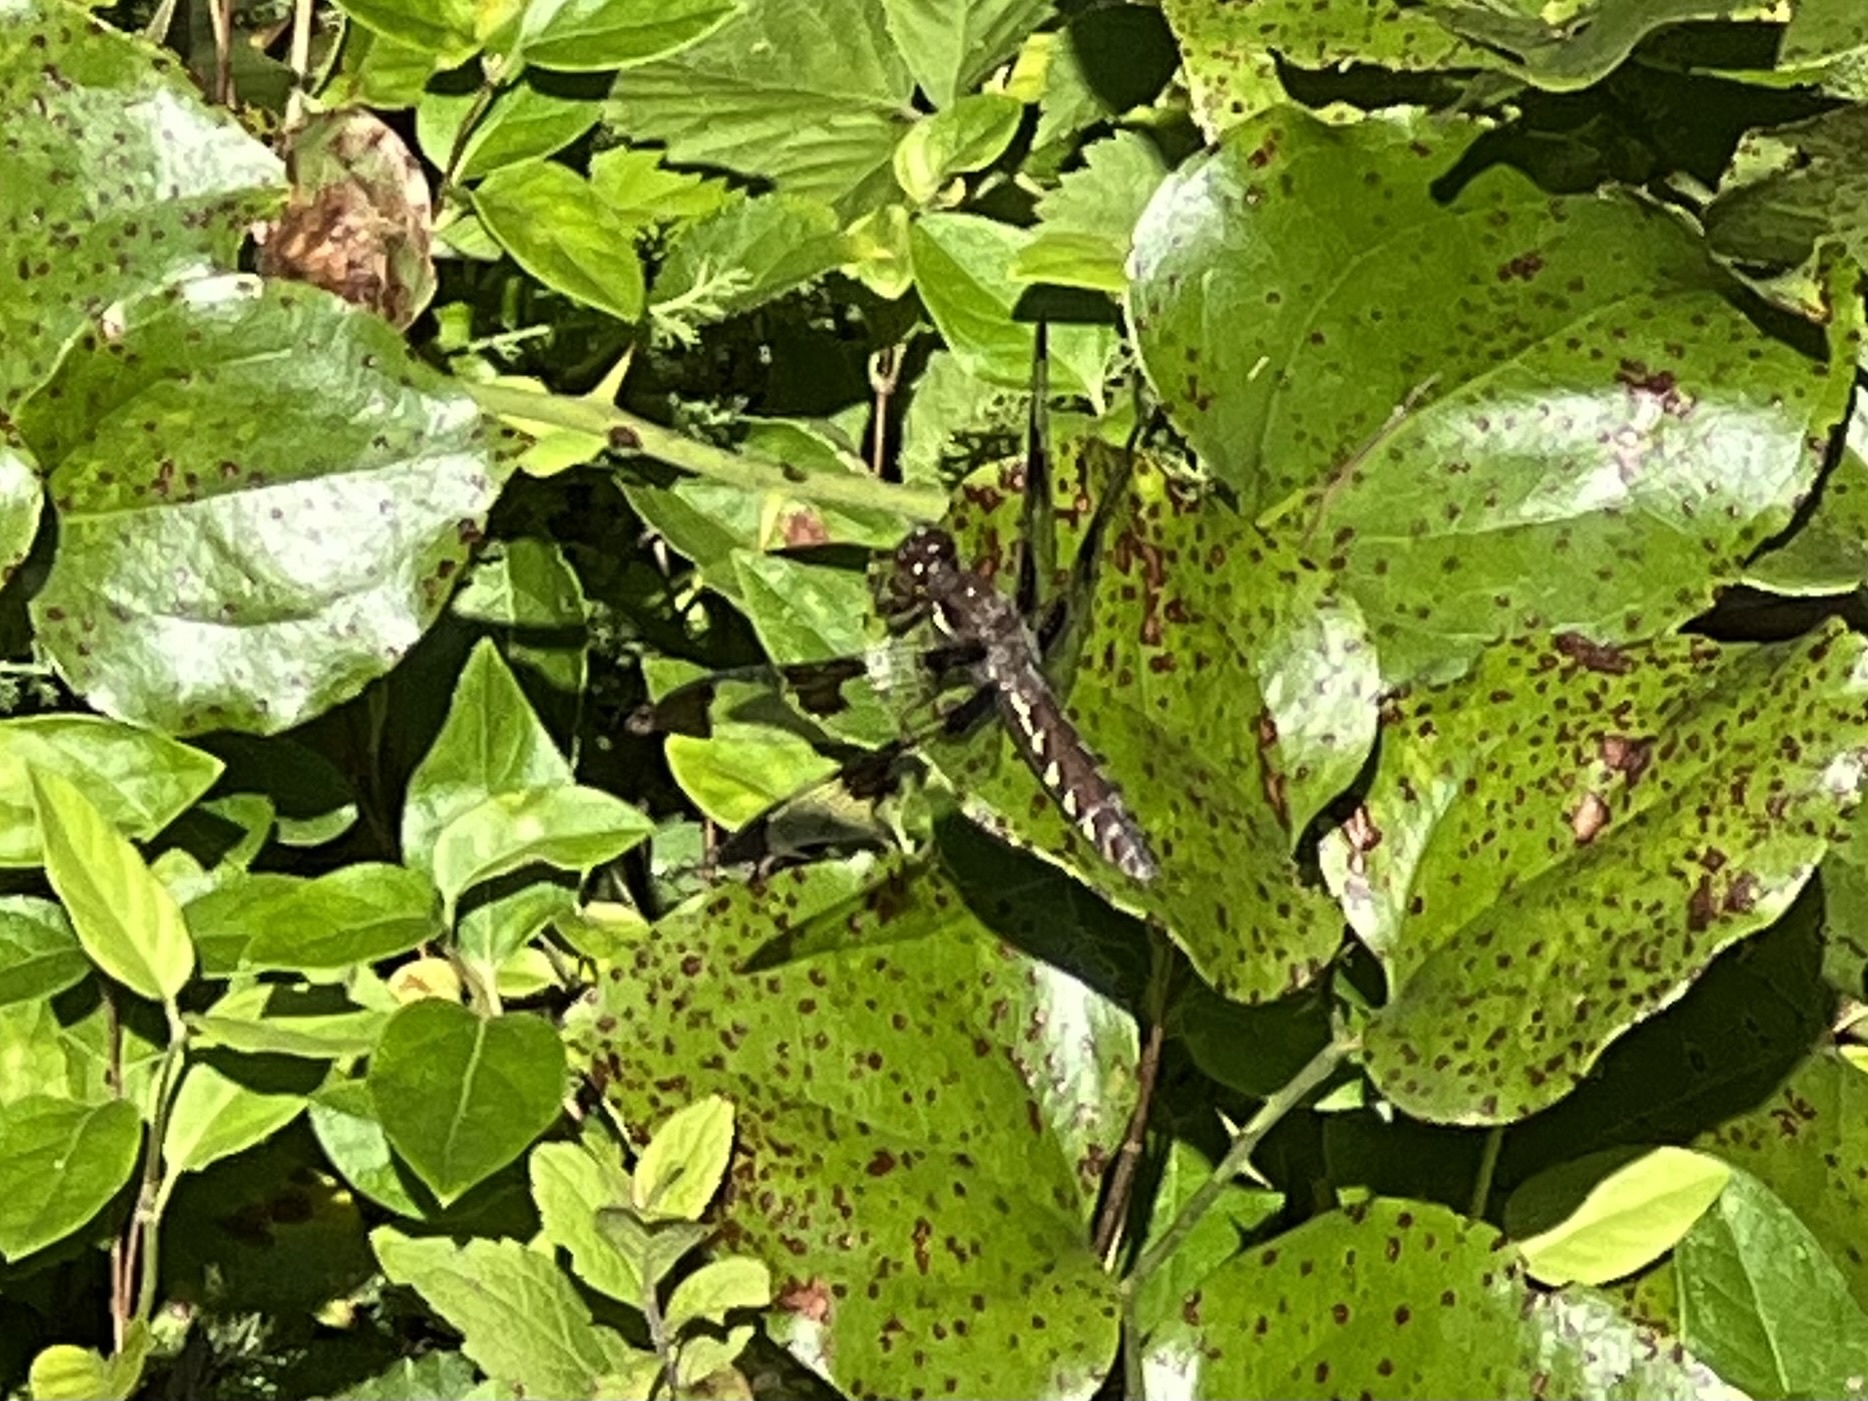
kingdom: Animalia
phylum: Arthropoda
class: Insecta
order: Odonata
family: Libellulidae
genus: Plathemis
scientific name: Plathemis lydia
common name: Common whitetail
